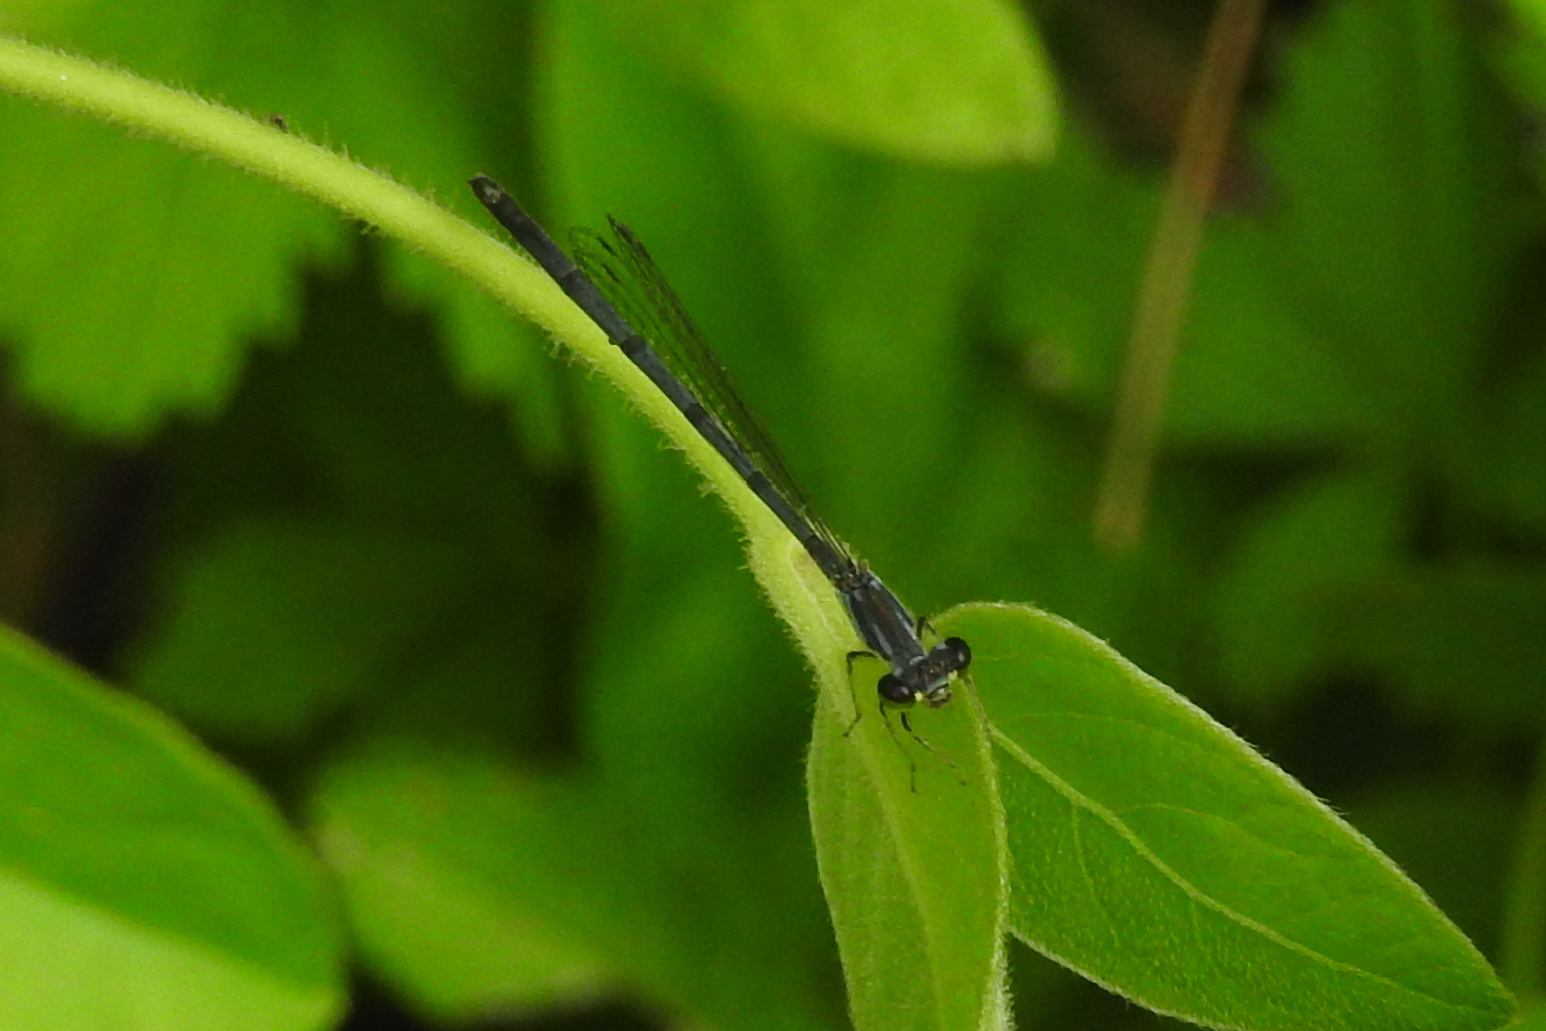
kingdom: Animalia
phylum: Arthropoda
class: Insecta
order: Odonata
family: Coenagrionidae
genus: Ischnura
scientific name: Ischnura posita
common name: Fragile forktail
